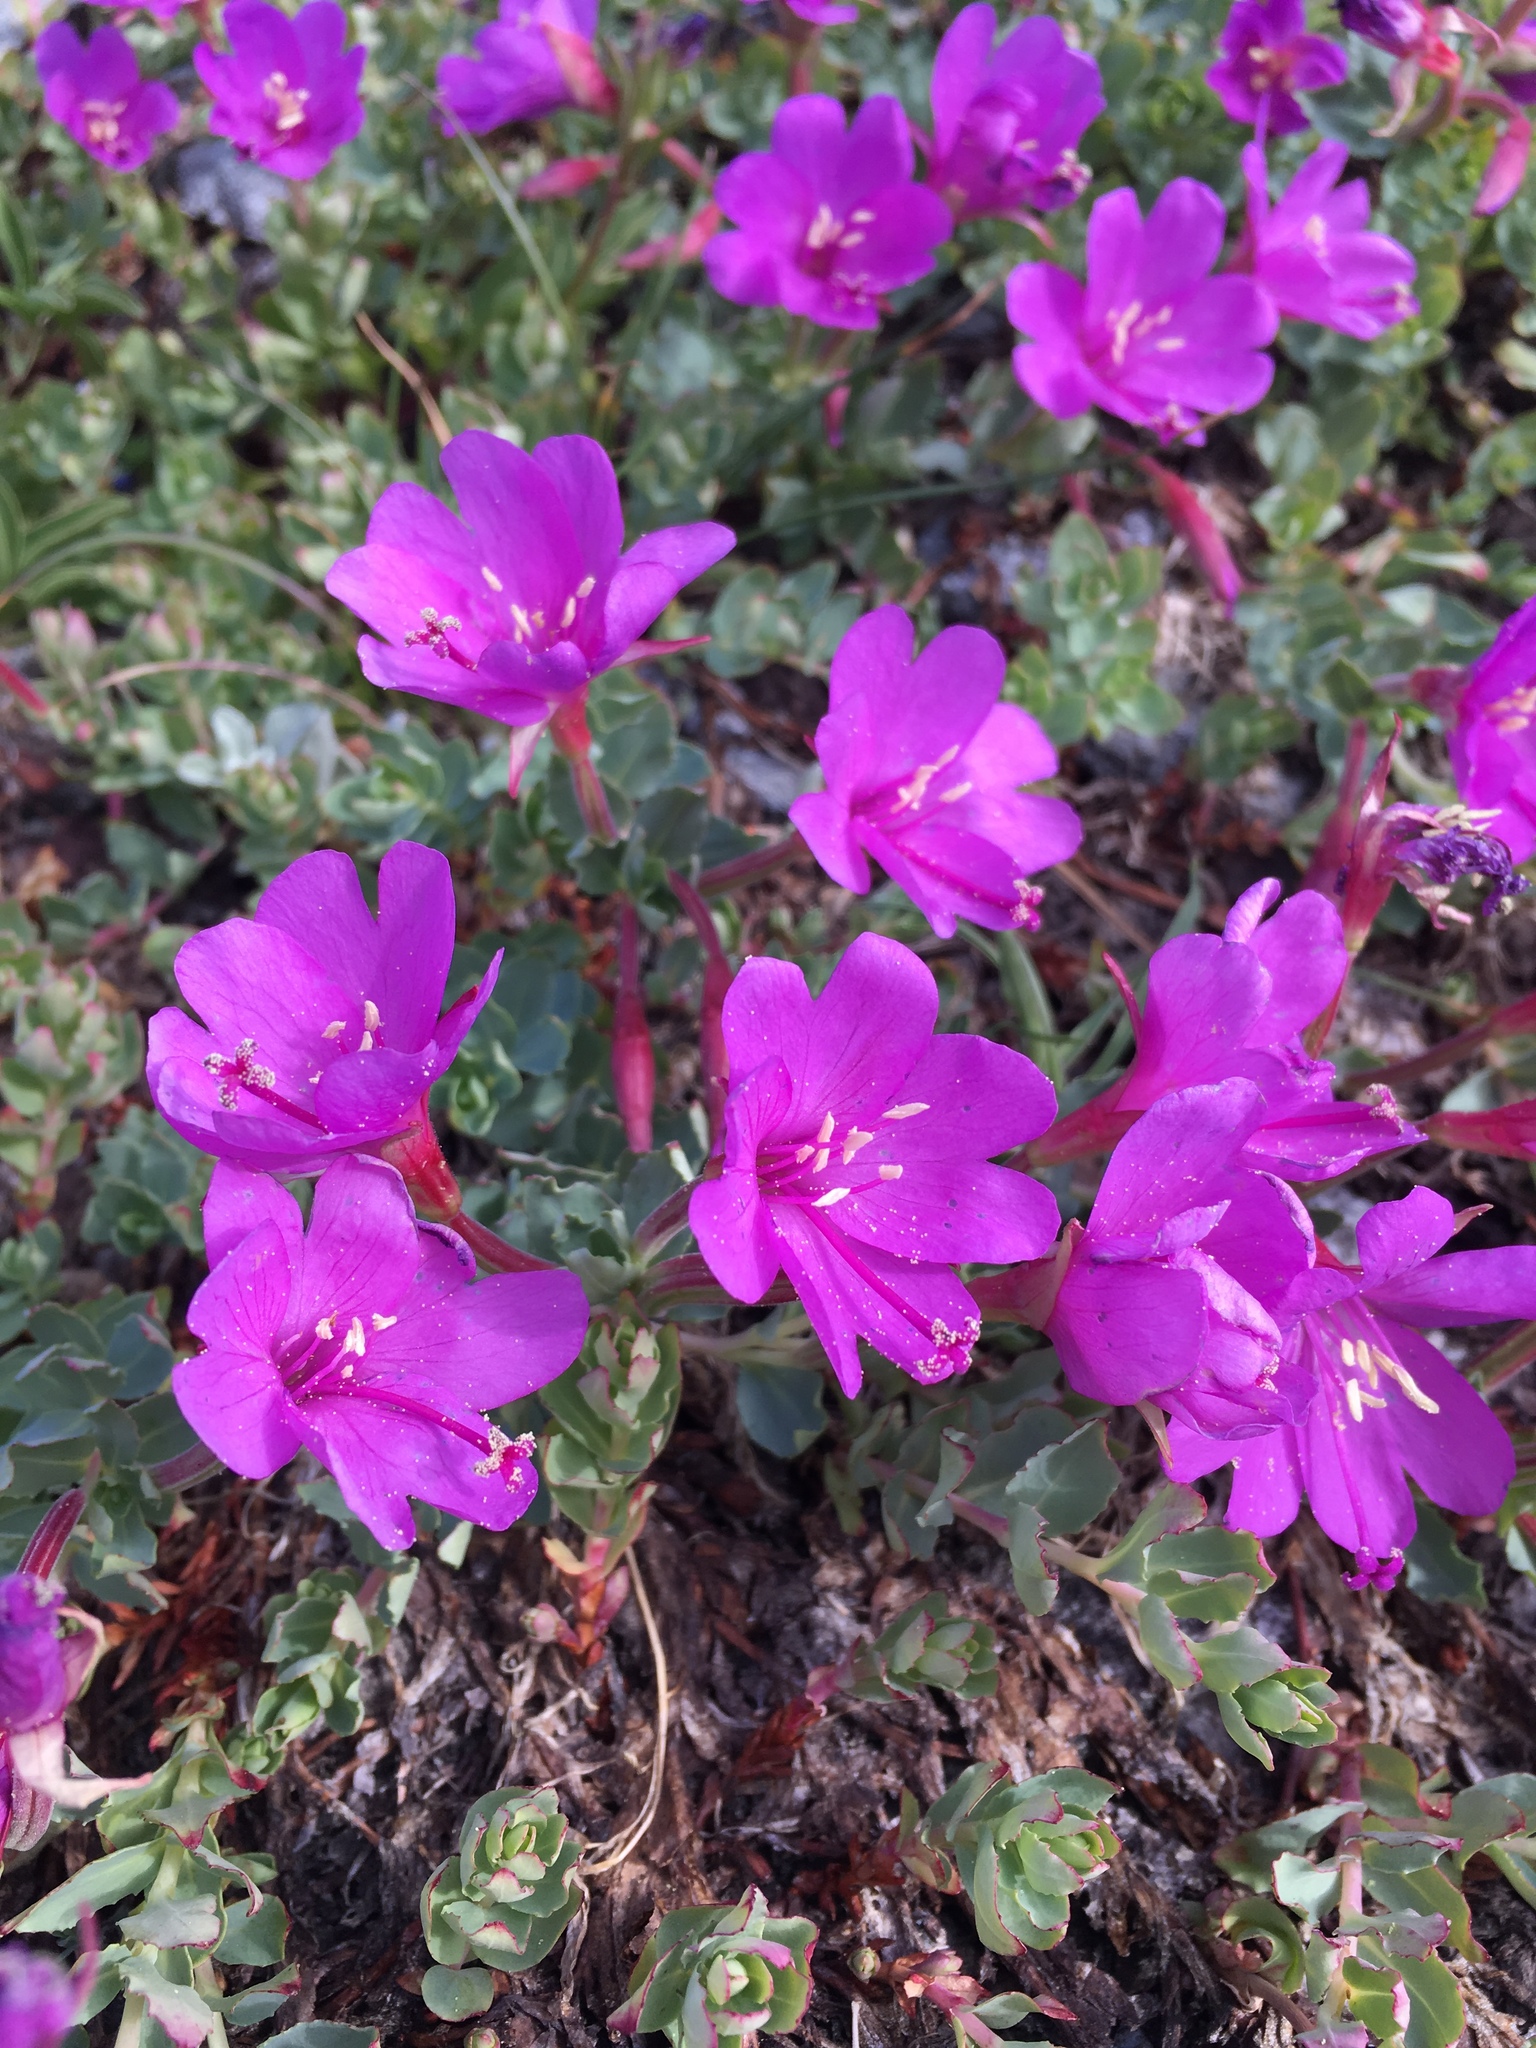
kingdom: Plantae
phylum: Tracheophyta
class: Magnoliopsida
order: Myrtales
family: Onagraceae
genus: Epilobium
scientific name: Epilobium obcordatum
